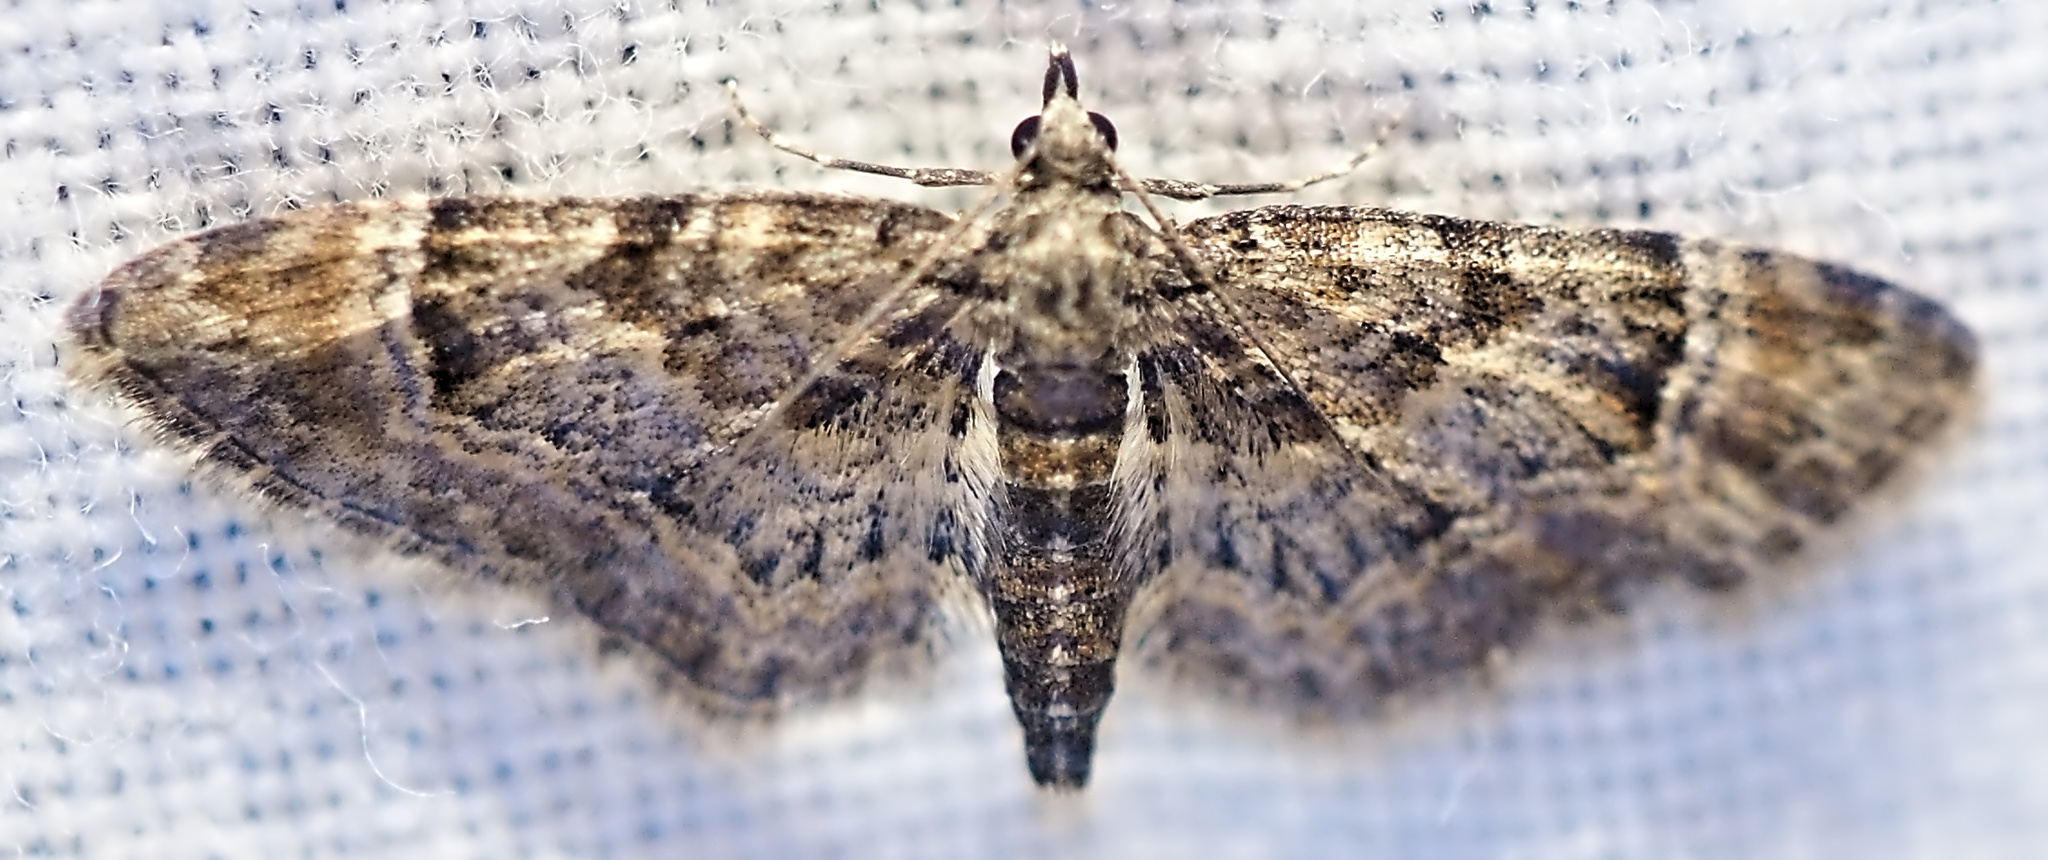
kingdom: Animalia
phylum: Arthropoda
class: Insecta
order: Lepidoptera
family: Geometridae
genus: Gymnoscelis
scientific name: Gymnoscelis rufifasciata
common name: Double-striped pug
